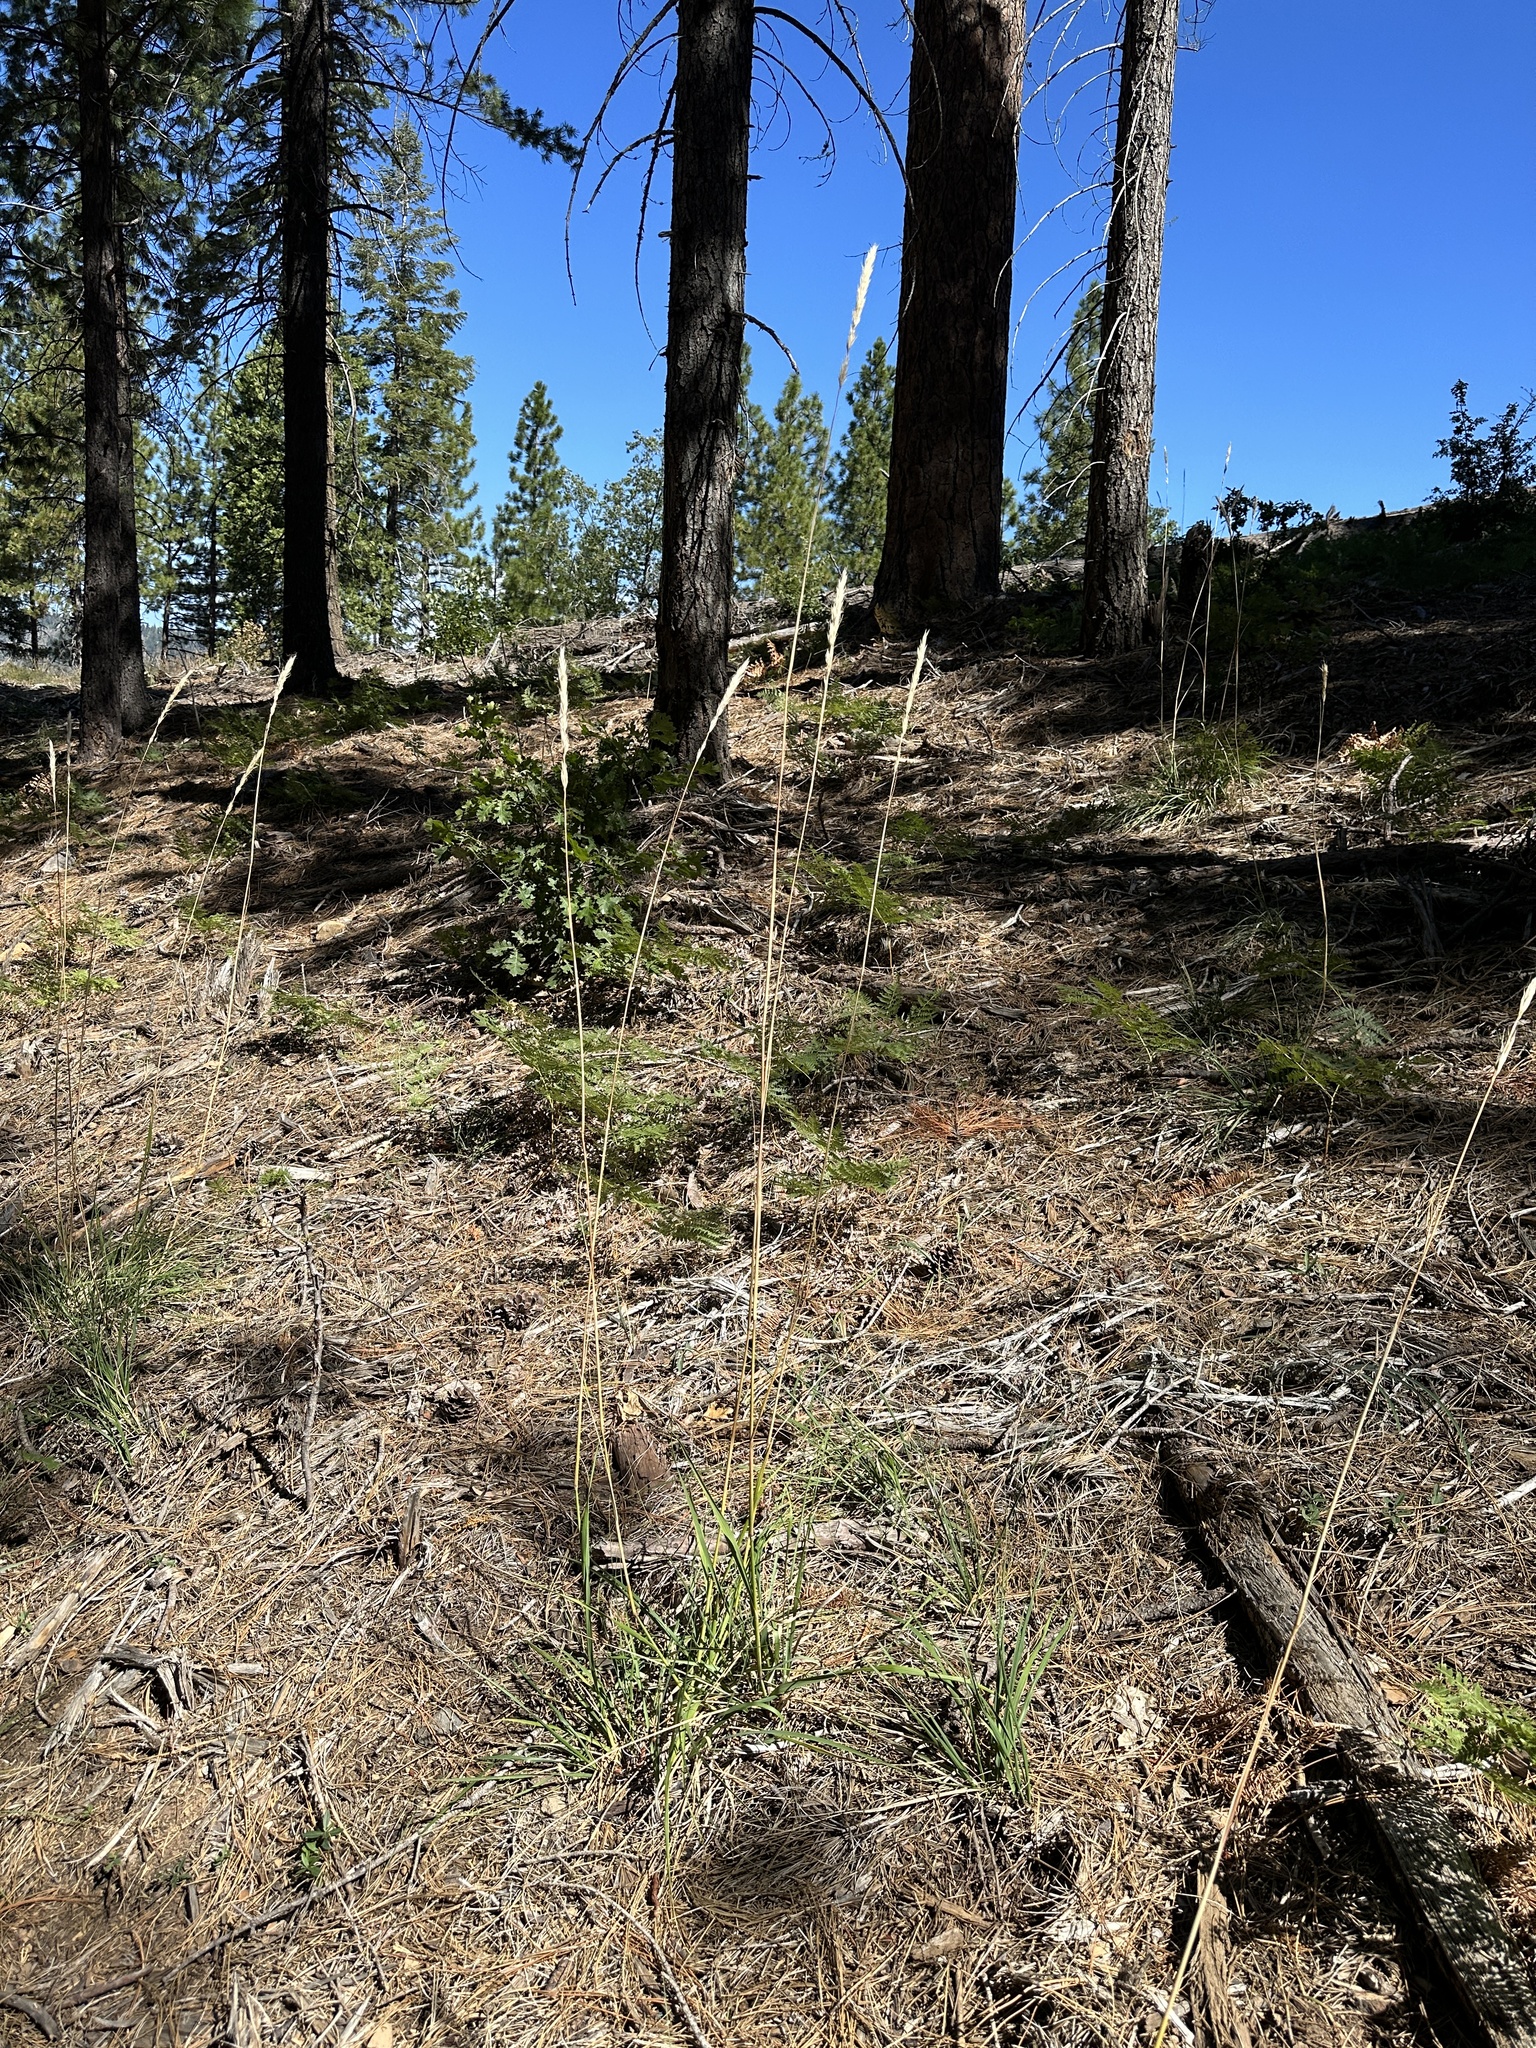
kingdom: Plantae
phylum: Tracheophyta
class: Liliopsida
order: Poales
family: Poaceae
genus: Barkworthia
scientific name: Barkworthia stillmanii
